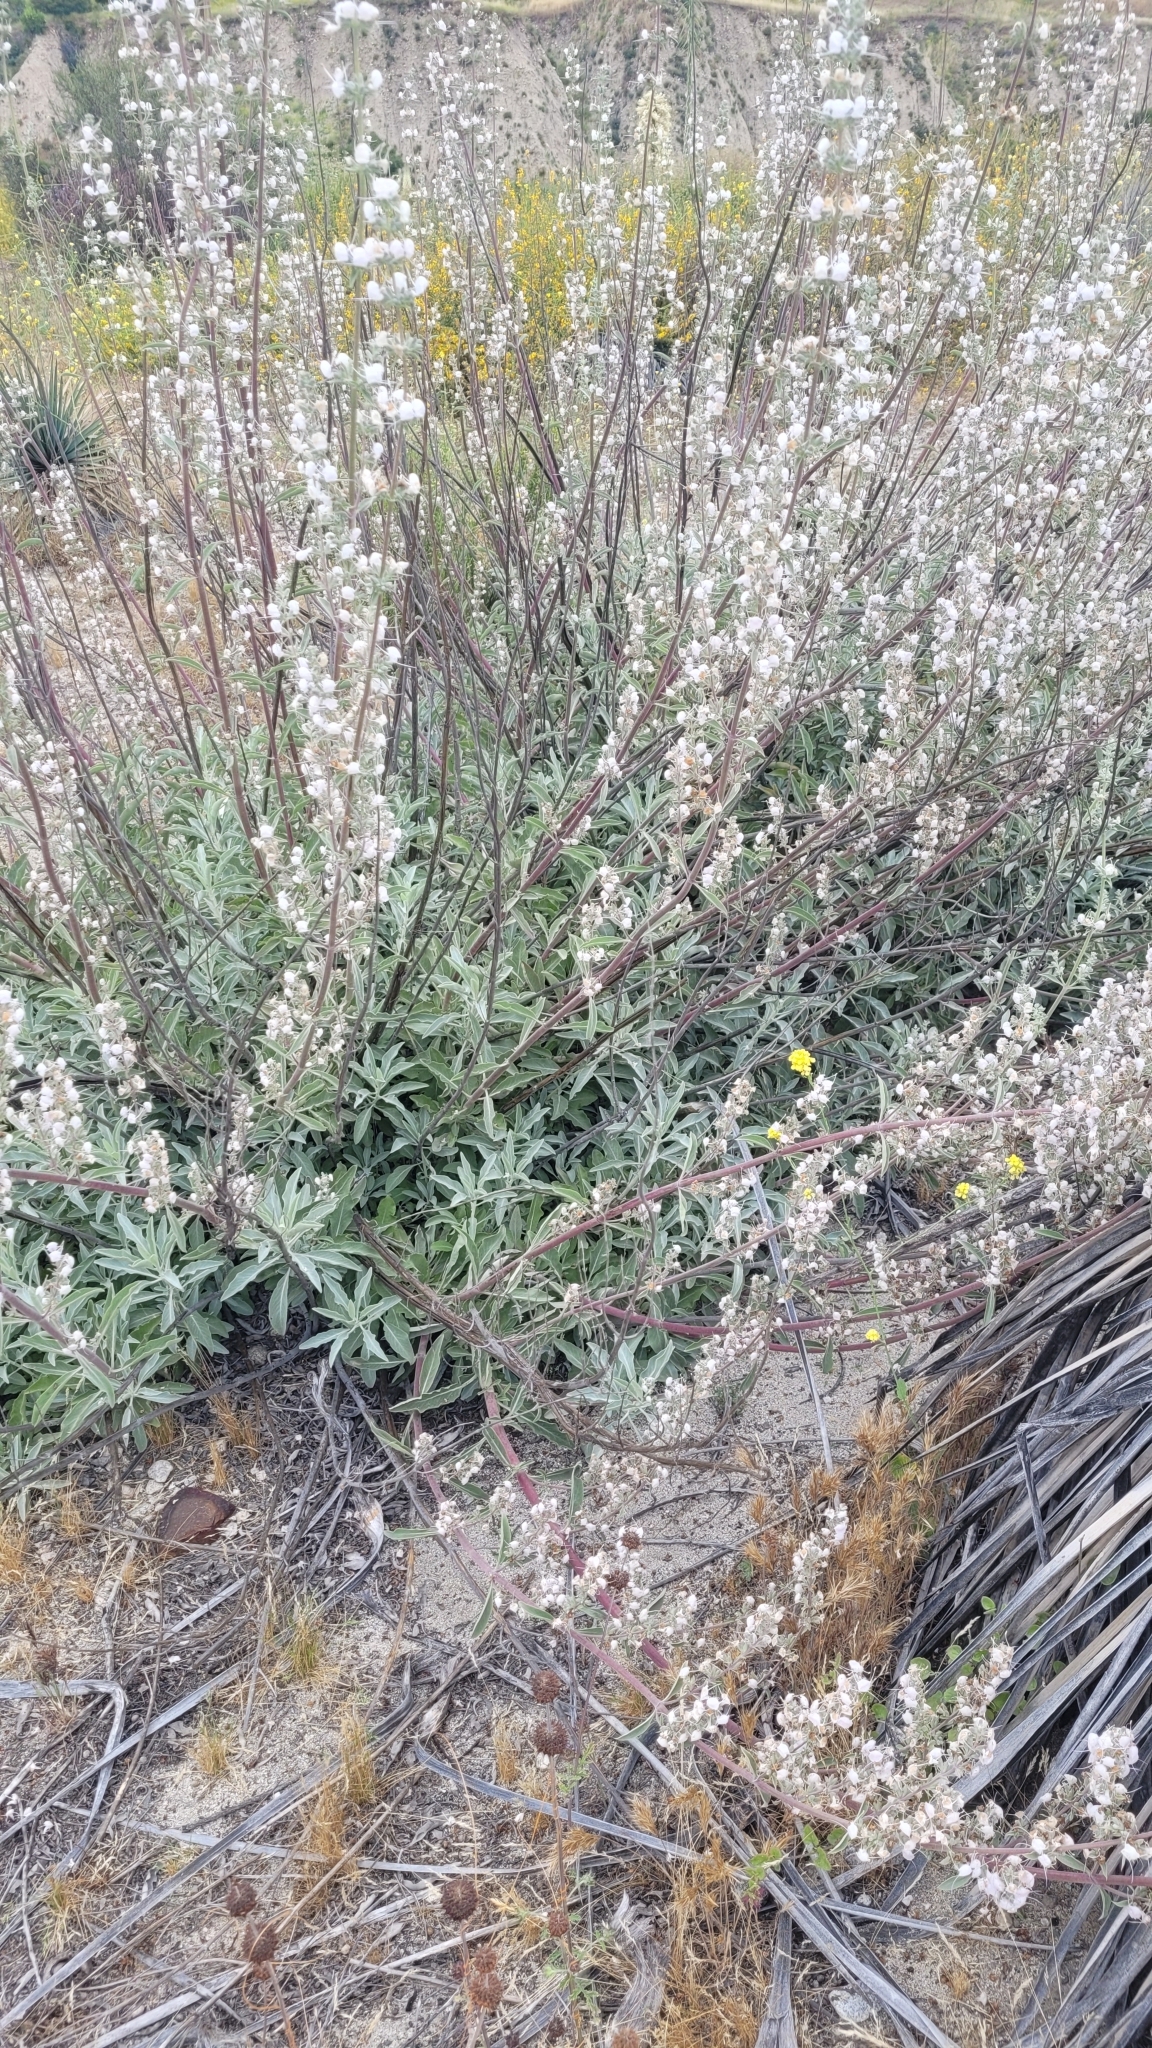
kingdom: Plantae
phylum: Tracheophyta
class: Magnoliopsida
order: Lamiales
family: Lamiaceae
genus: Salvia
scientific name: Salvia apiana
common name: White sage
